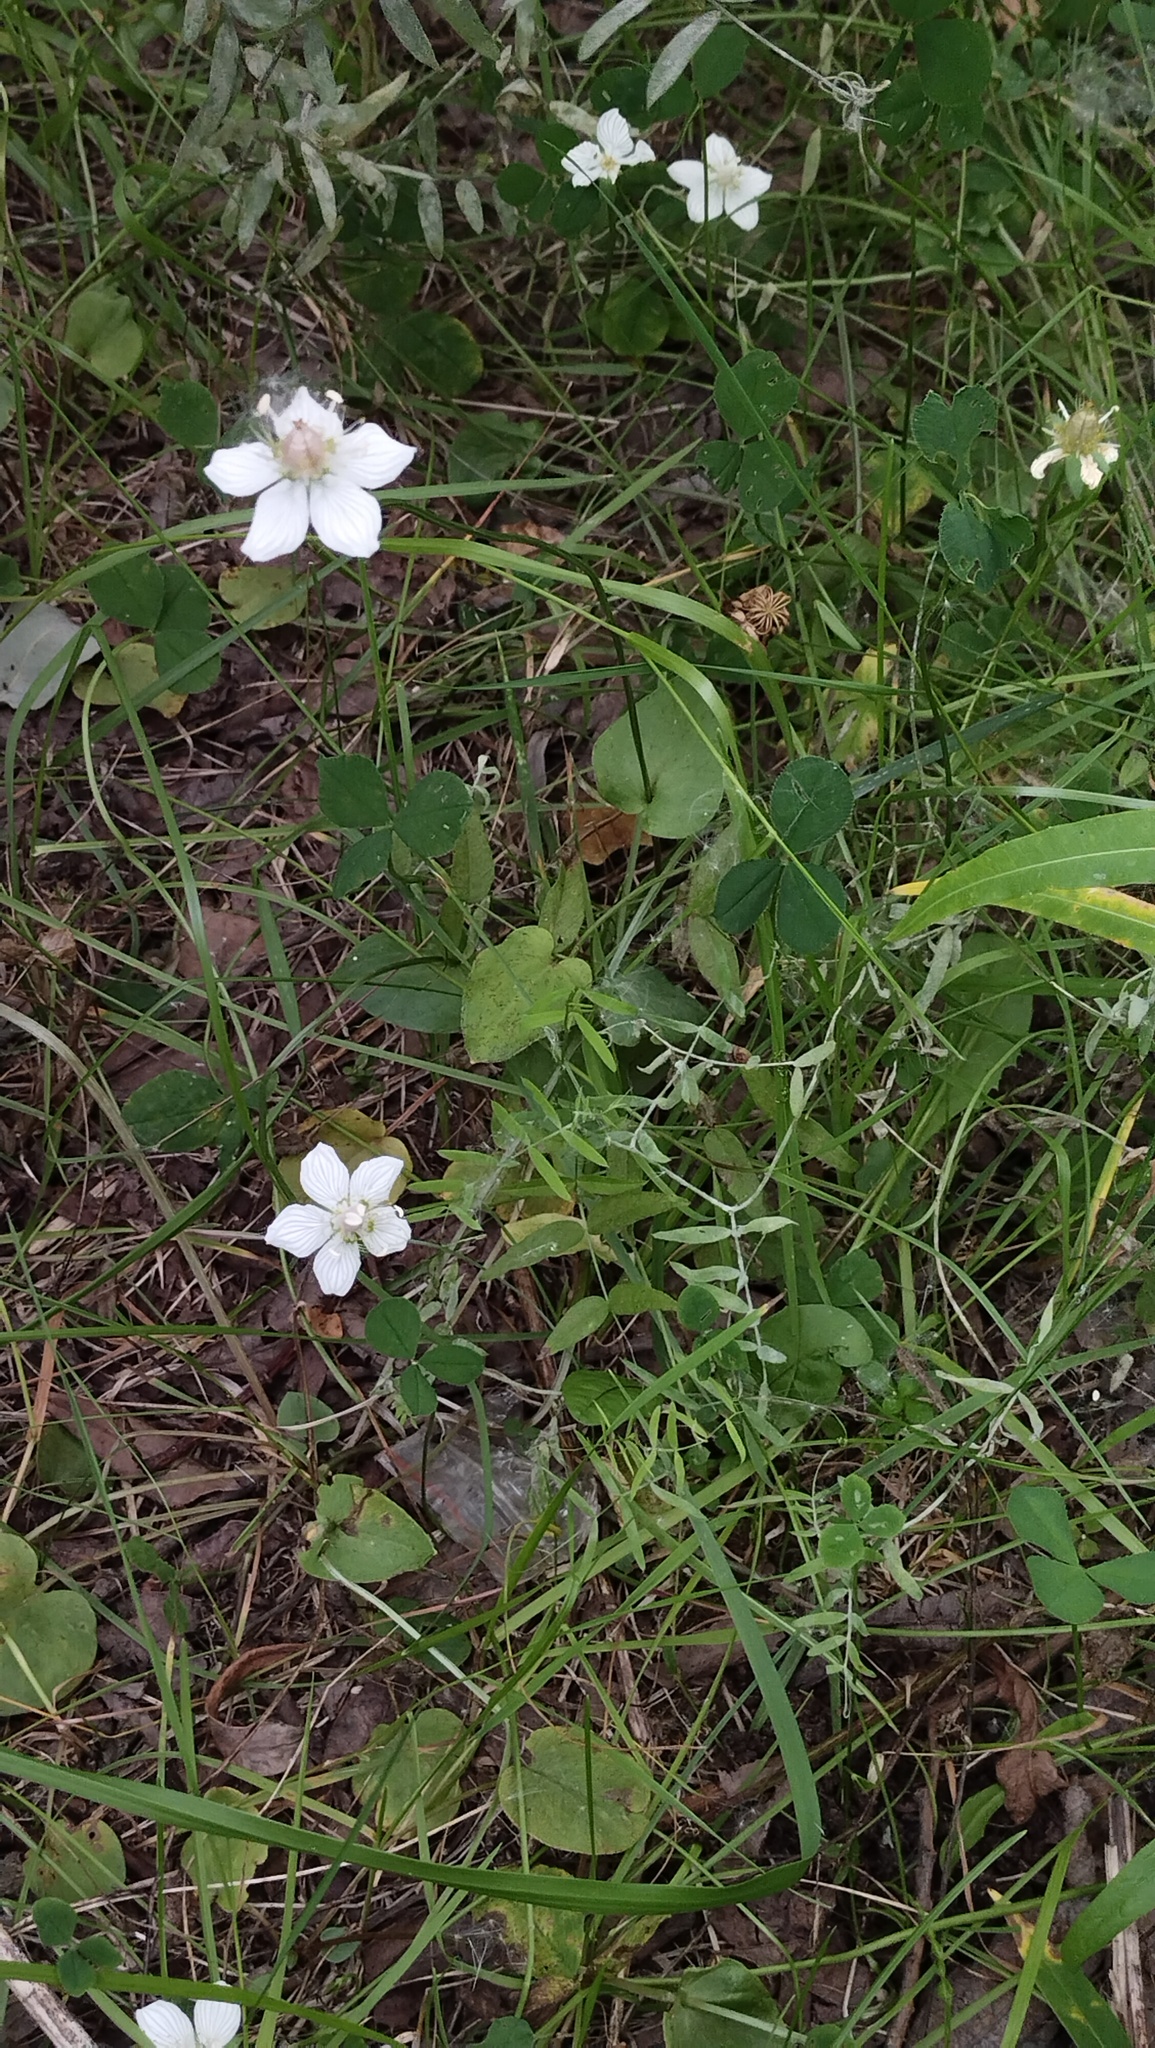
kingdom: Plantae
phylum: Tracheophyta
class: Magnoliopsida
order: Celastrales
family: Parnassiaceae
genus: Parnassia
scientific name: Parnassia palustris
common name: Grass-of-parnassus
